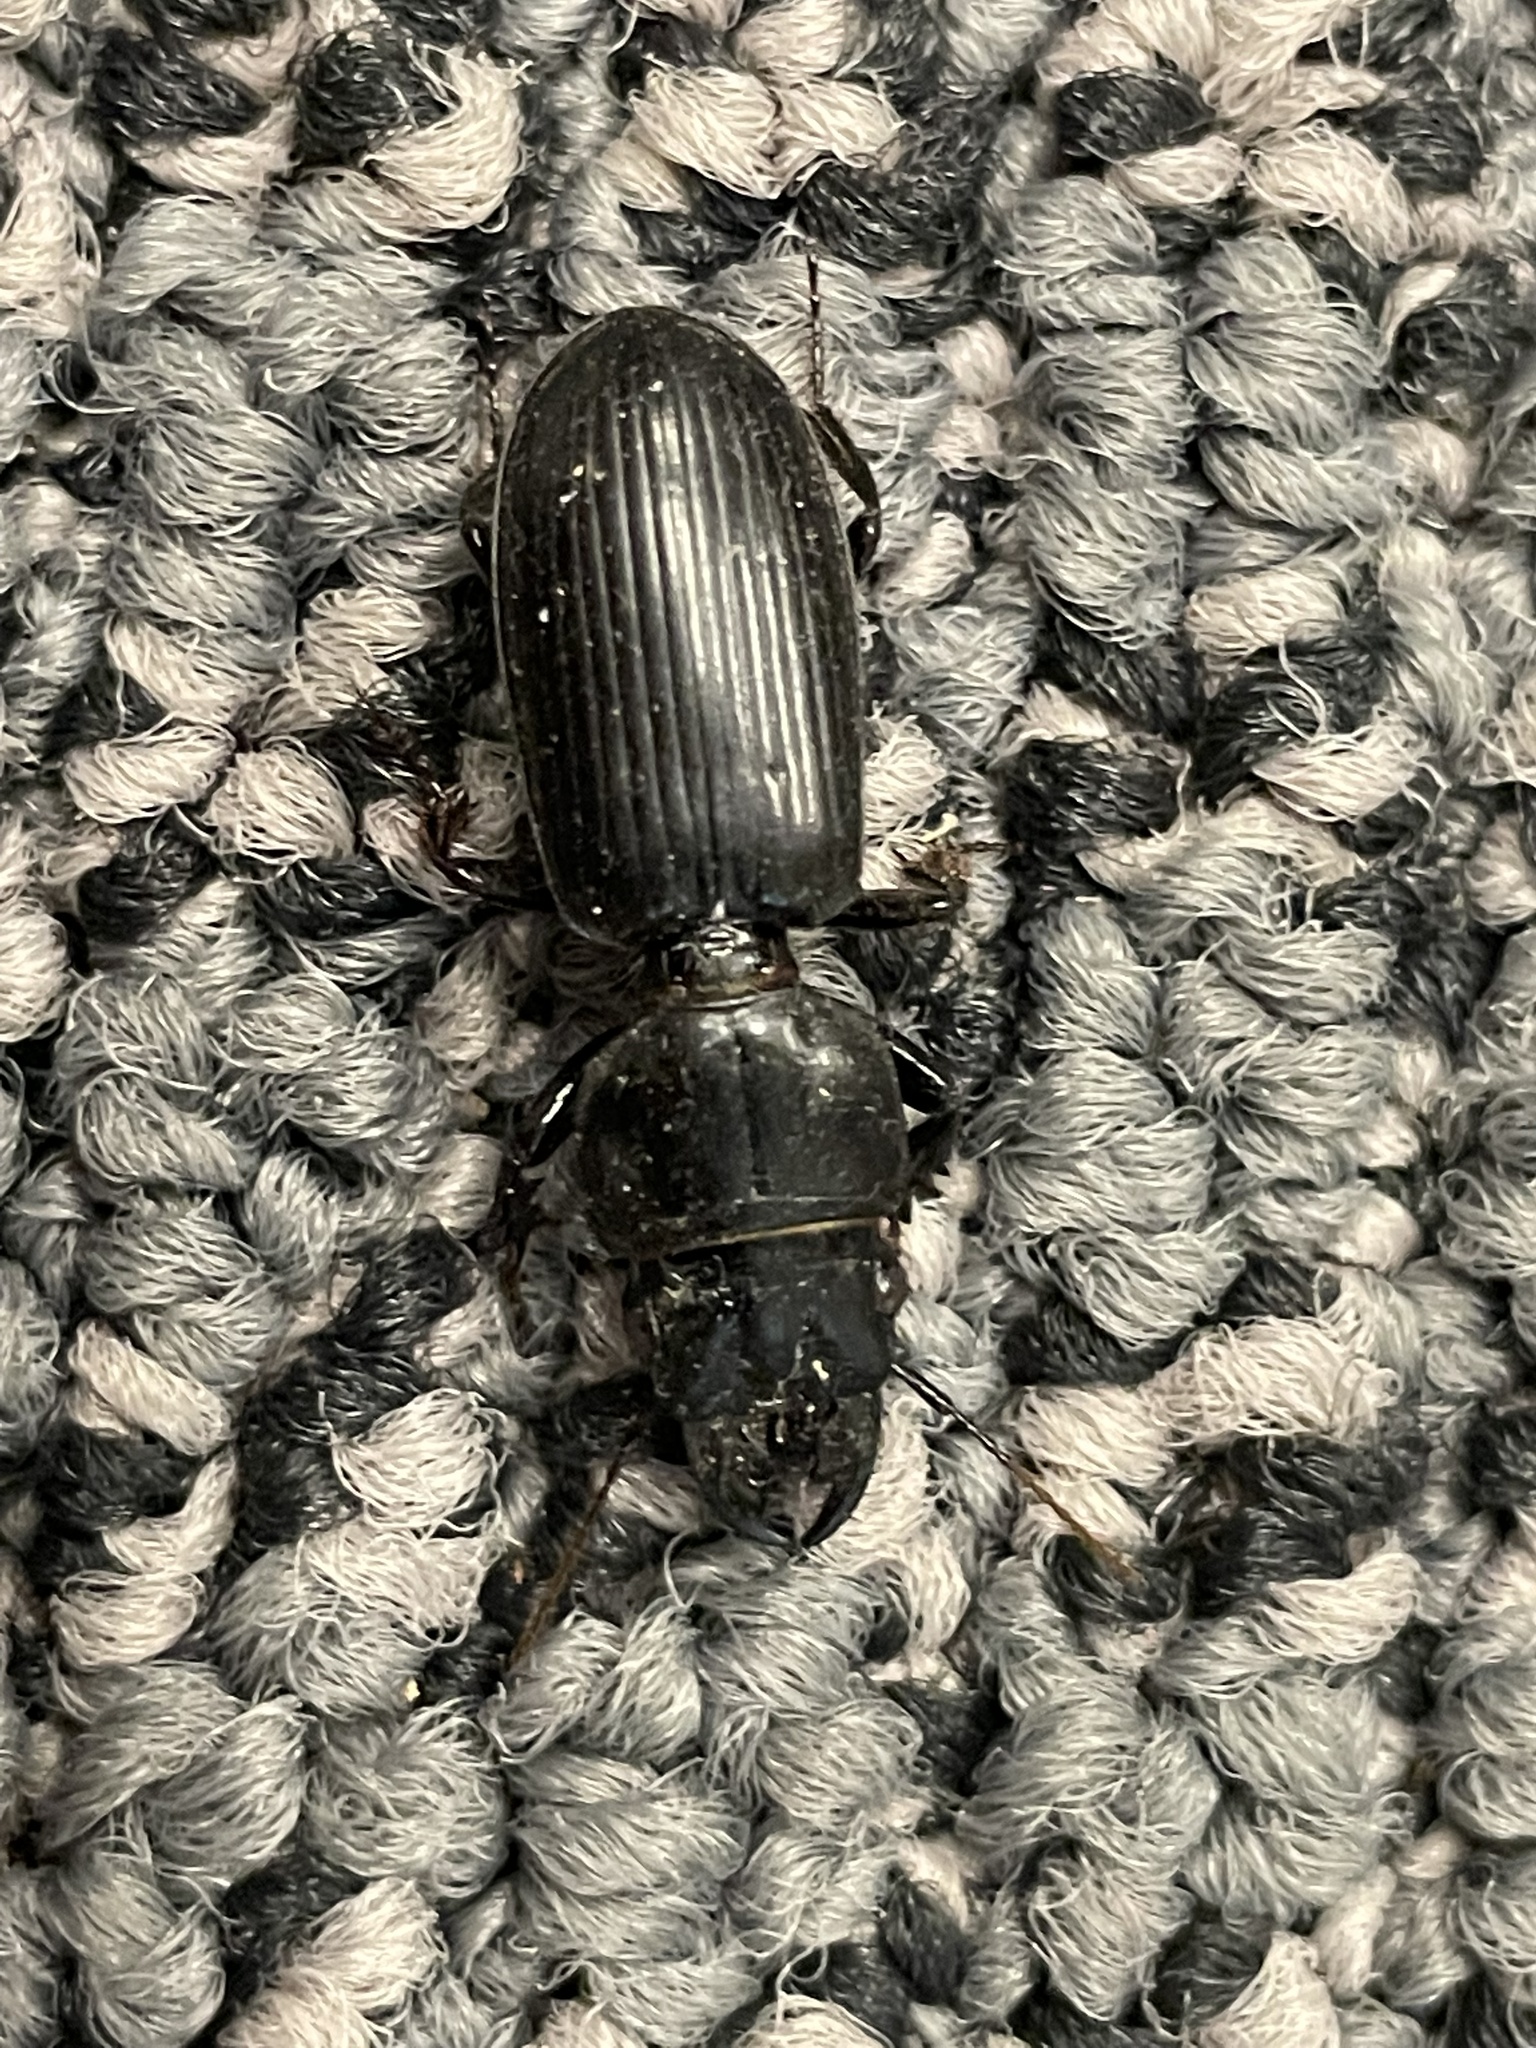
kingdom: Animalia
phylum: Arthropoda
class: Insecta
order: Coleoptera
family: Carabidae
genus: Scarites
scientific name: Scarites subterraneus
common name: Big-headed ground beetle
